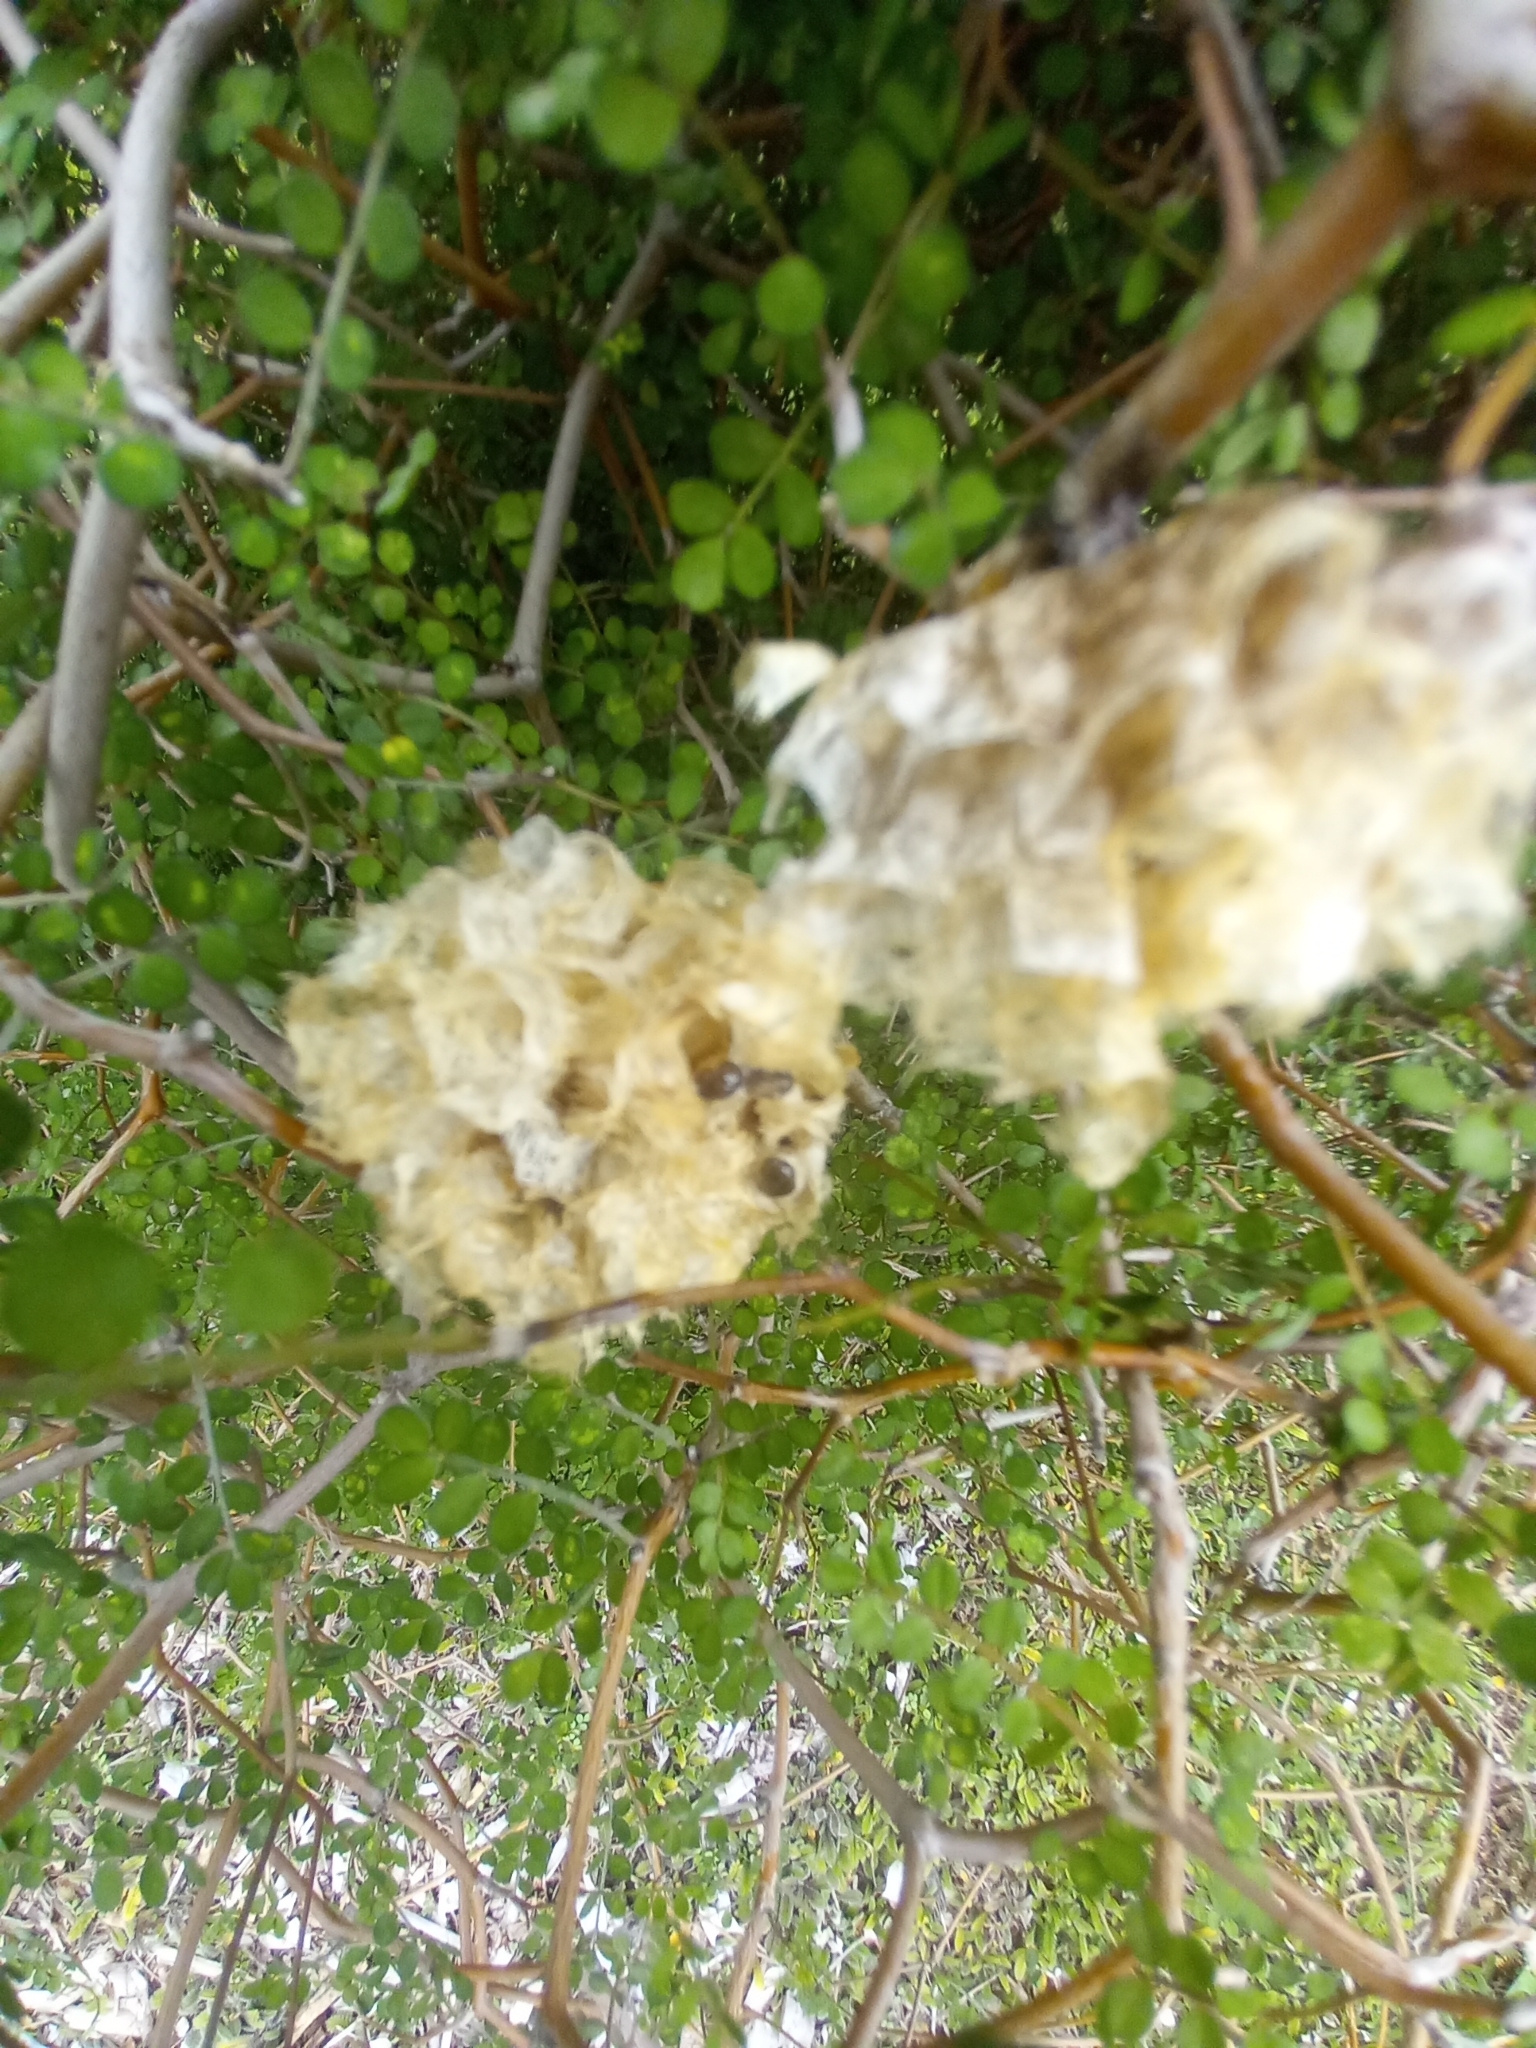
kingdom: Animalia
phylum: Arthropoda
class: Insecta
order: Hymenoptera
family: Eumenidae
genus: Polistes
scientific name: Polistes
